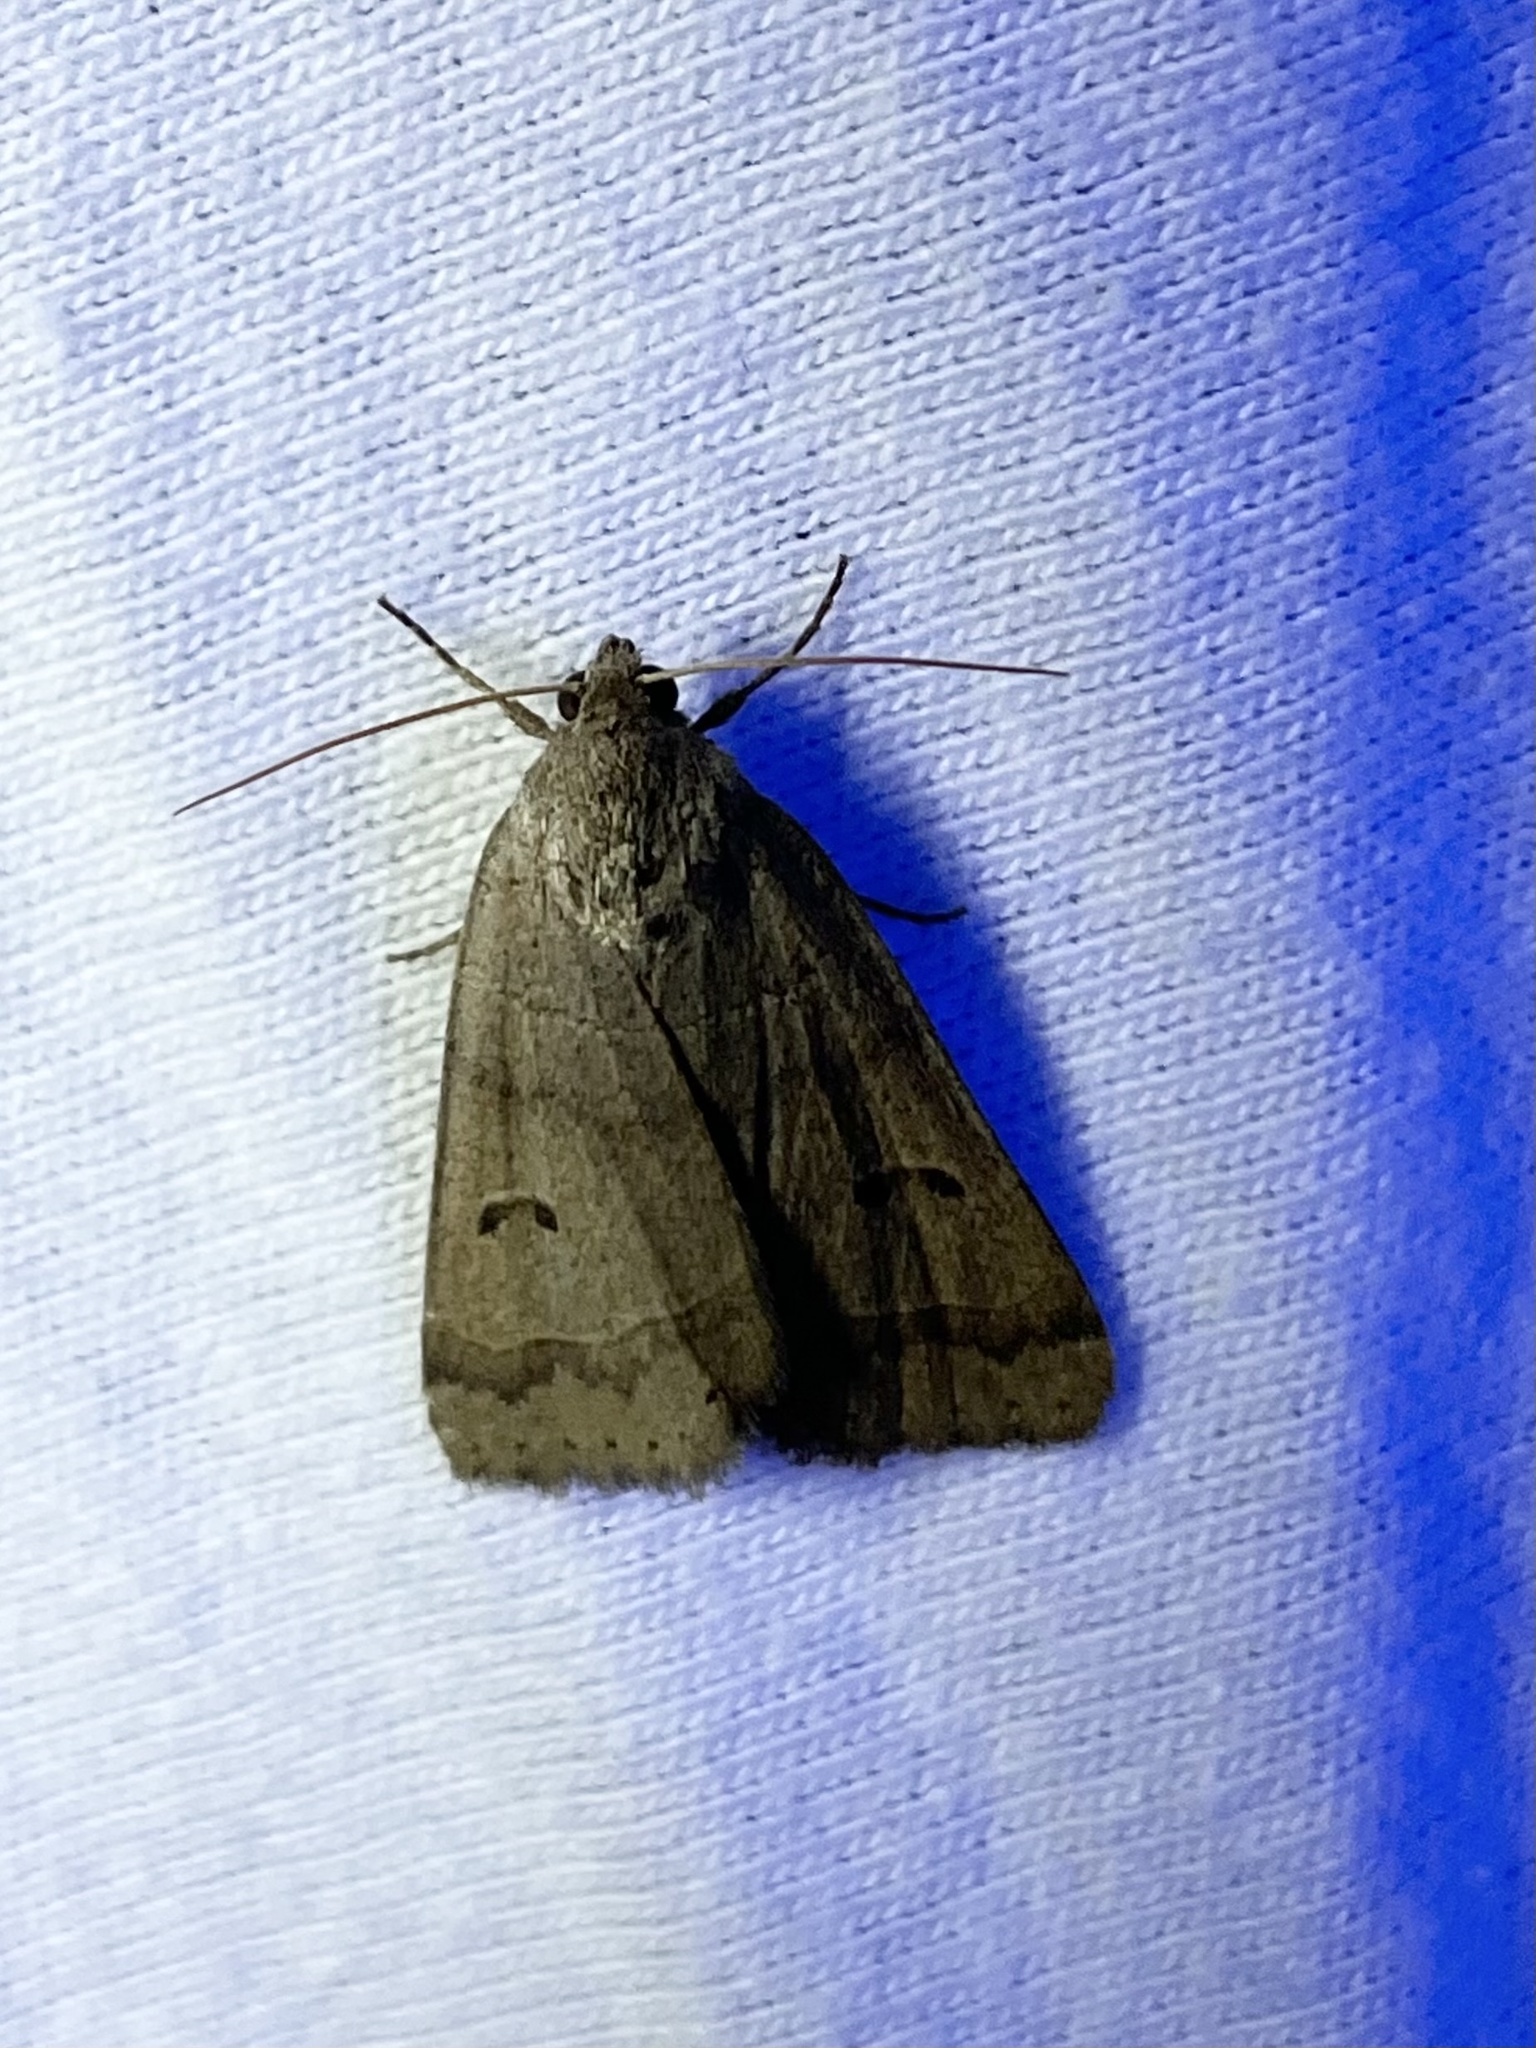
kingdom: Animalia
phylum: Arthropoda
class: Insecta
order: Lepidoptera
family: Erebidae
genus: Phoberia
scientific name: Phoberia atomaris
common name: Common oak moth
